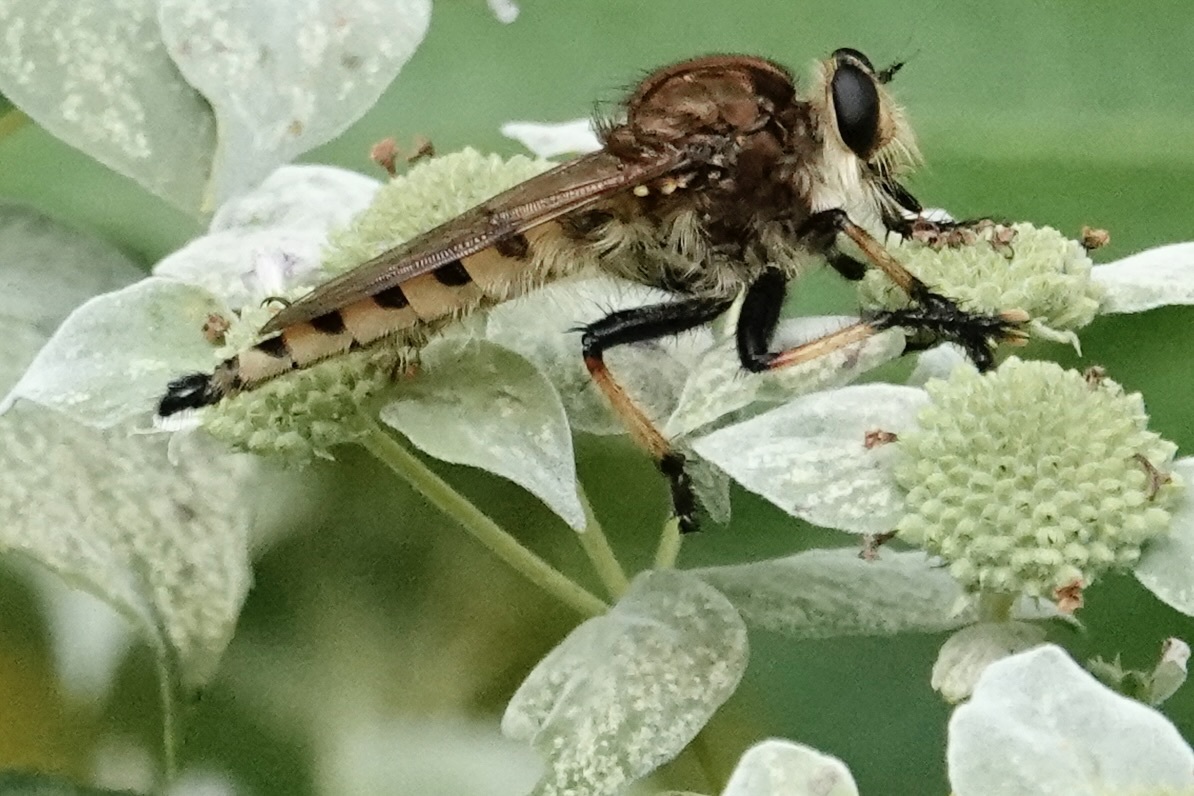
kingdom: Animalia
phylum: Arthropoda
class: Insecta
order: Diptera
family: Asilidae
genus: Promachus
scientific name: Promachus rufipes
